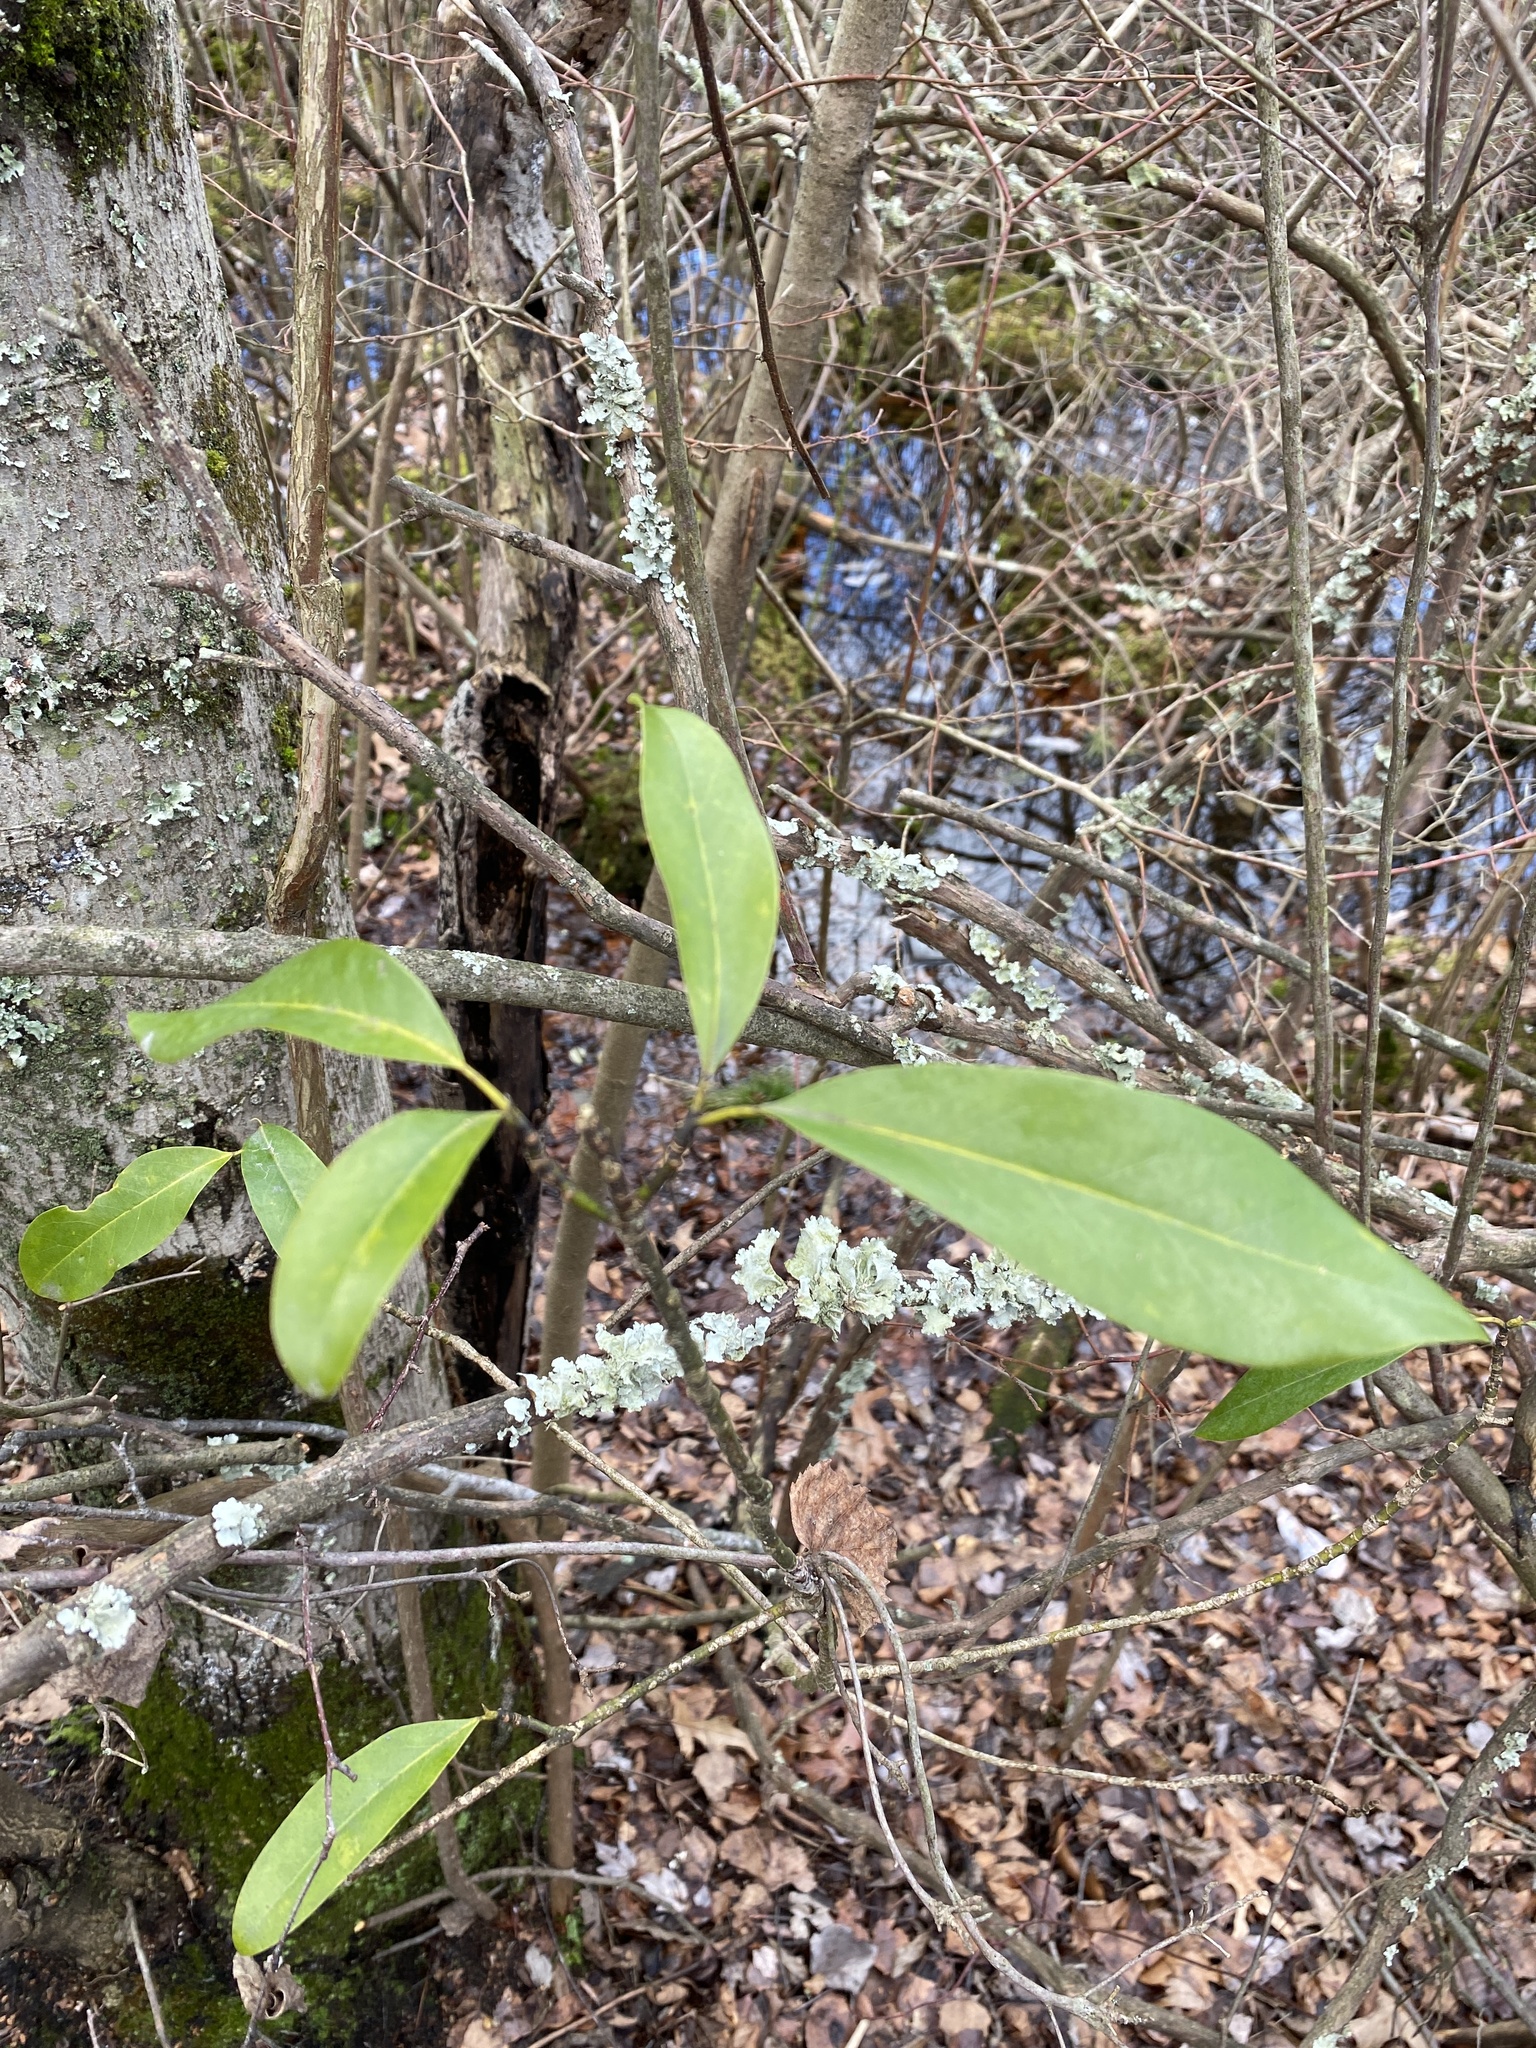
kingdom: Plantae
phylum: Tracheophyta
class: Magnoliopsida
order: Magnoliales
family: Magnoliaceae
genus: Magnolia
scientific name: Magnolia virginiana
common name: Swamp bay
